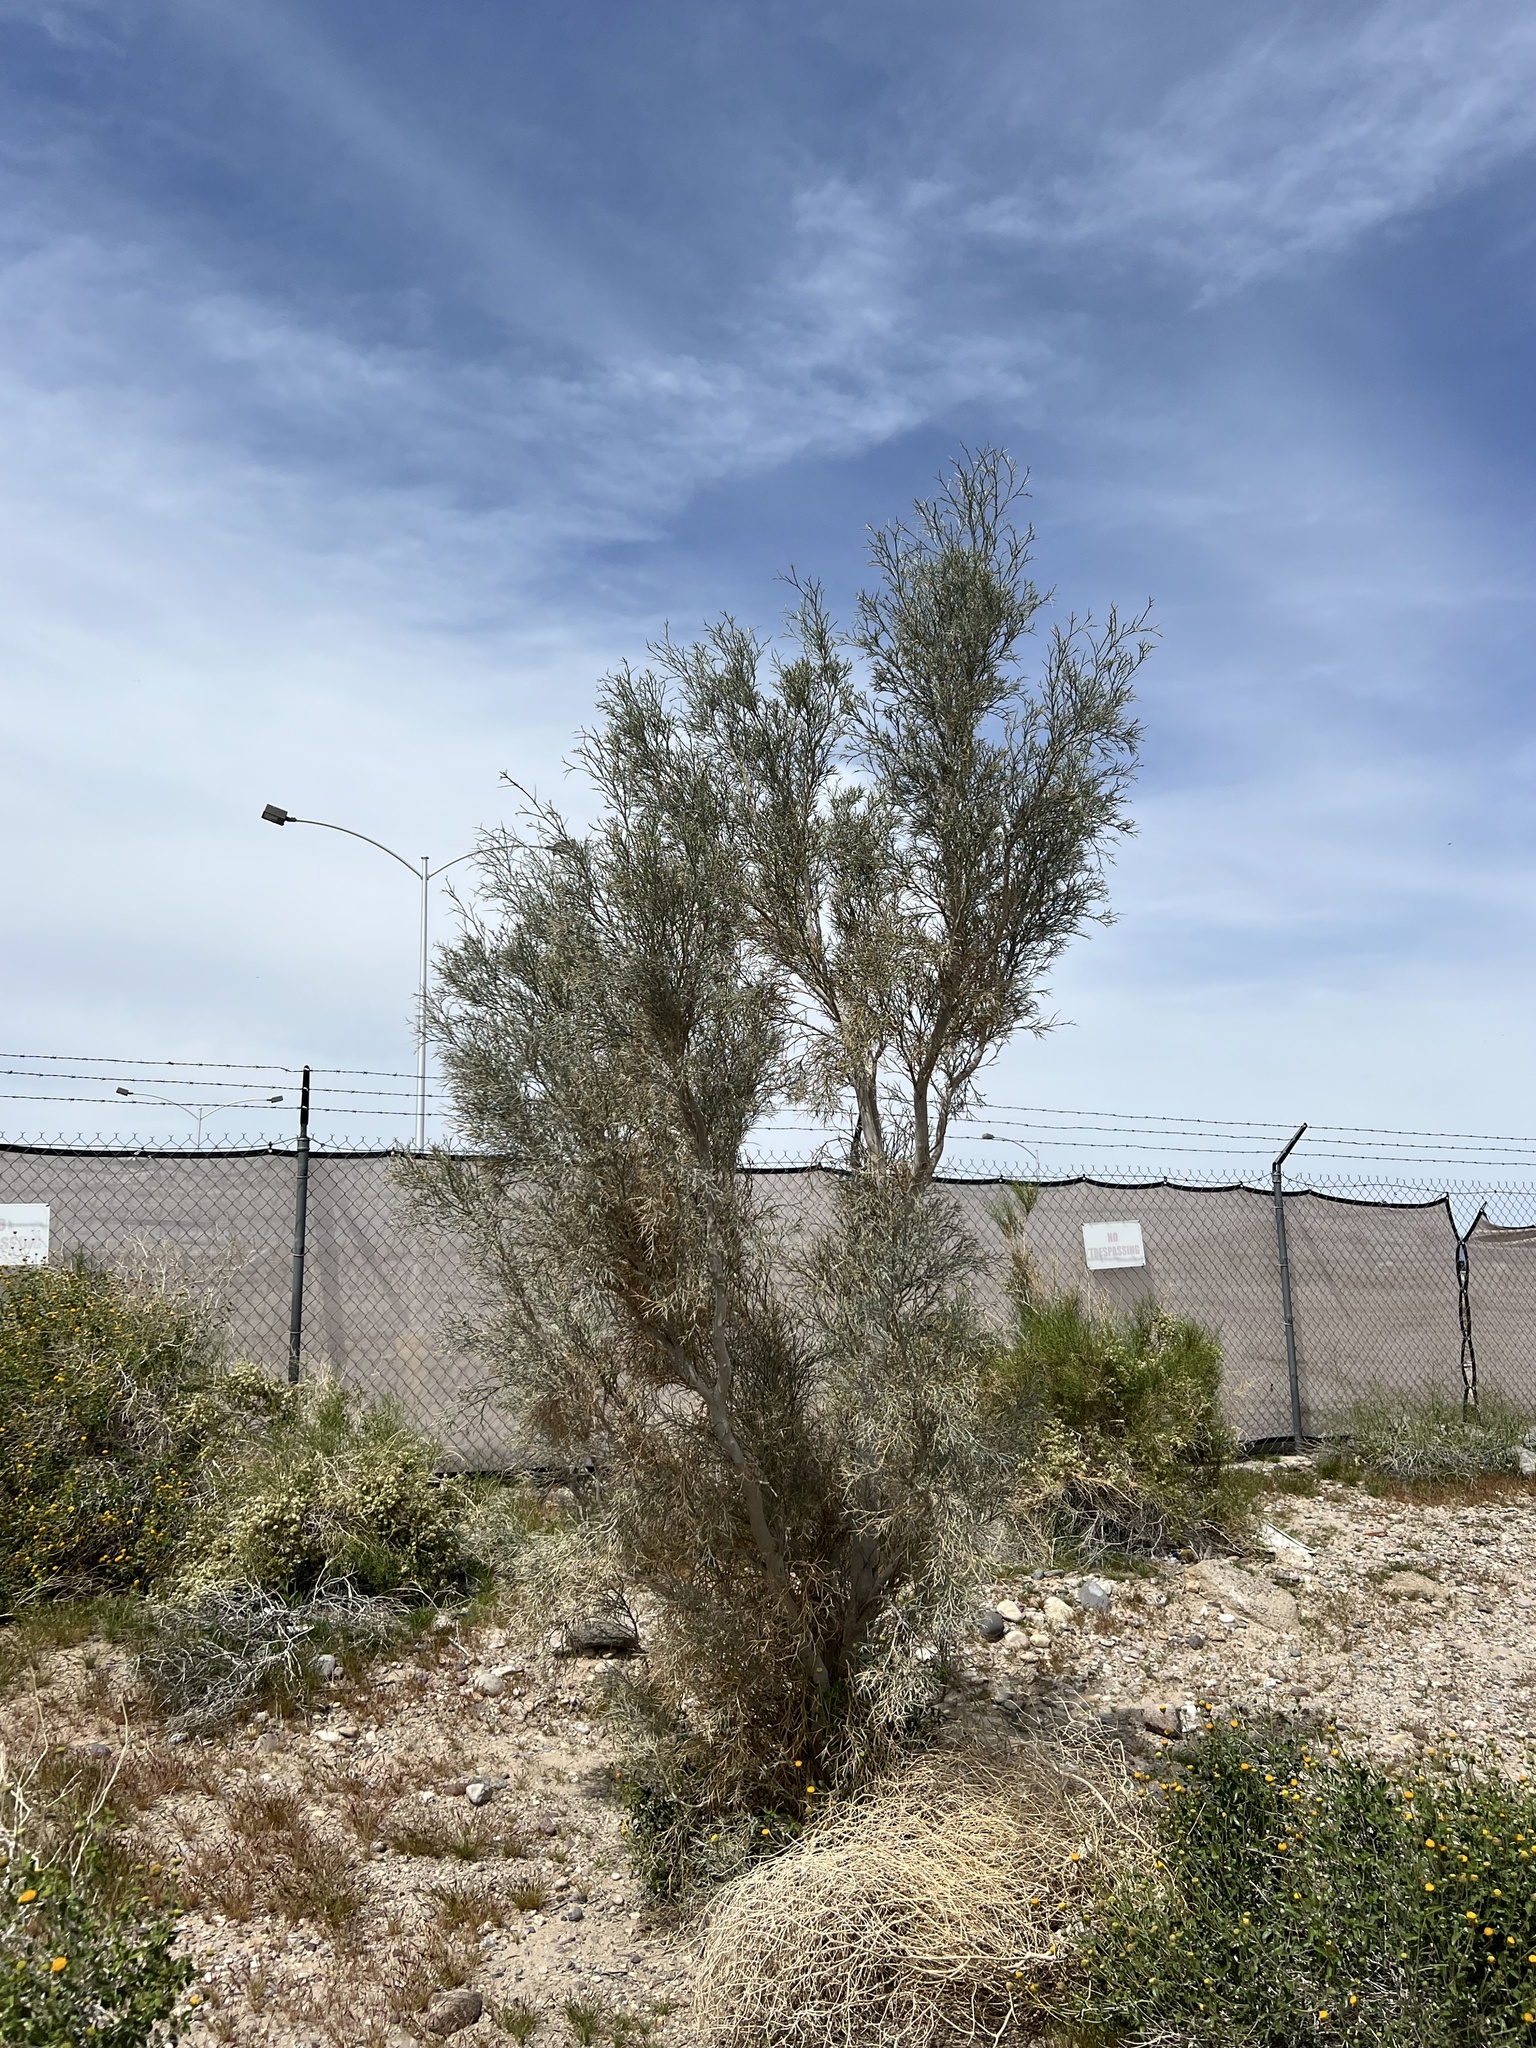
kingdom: Plantae
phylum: Tracheophyta
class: Magnoliopsida
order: Fabales
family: Fabaceae
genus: Psorothamnus
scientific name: Psorothamnus spinosus
